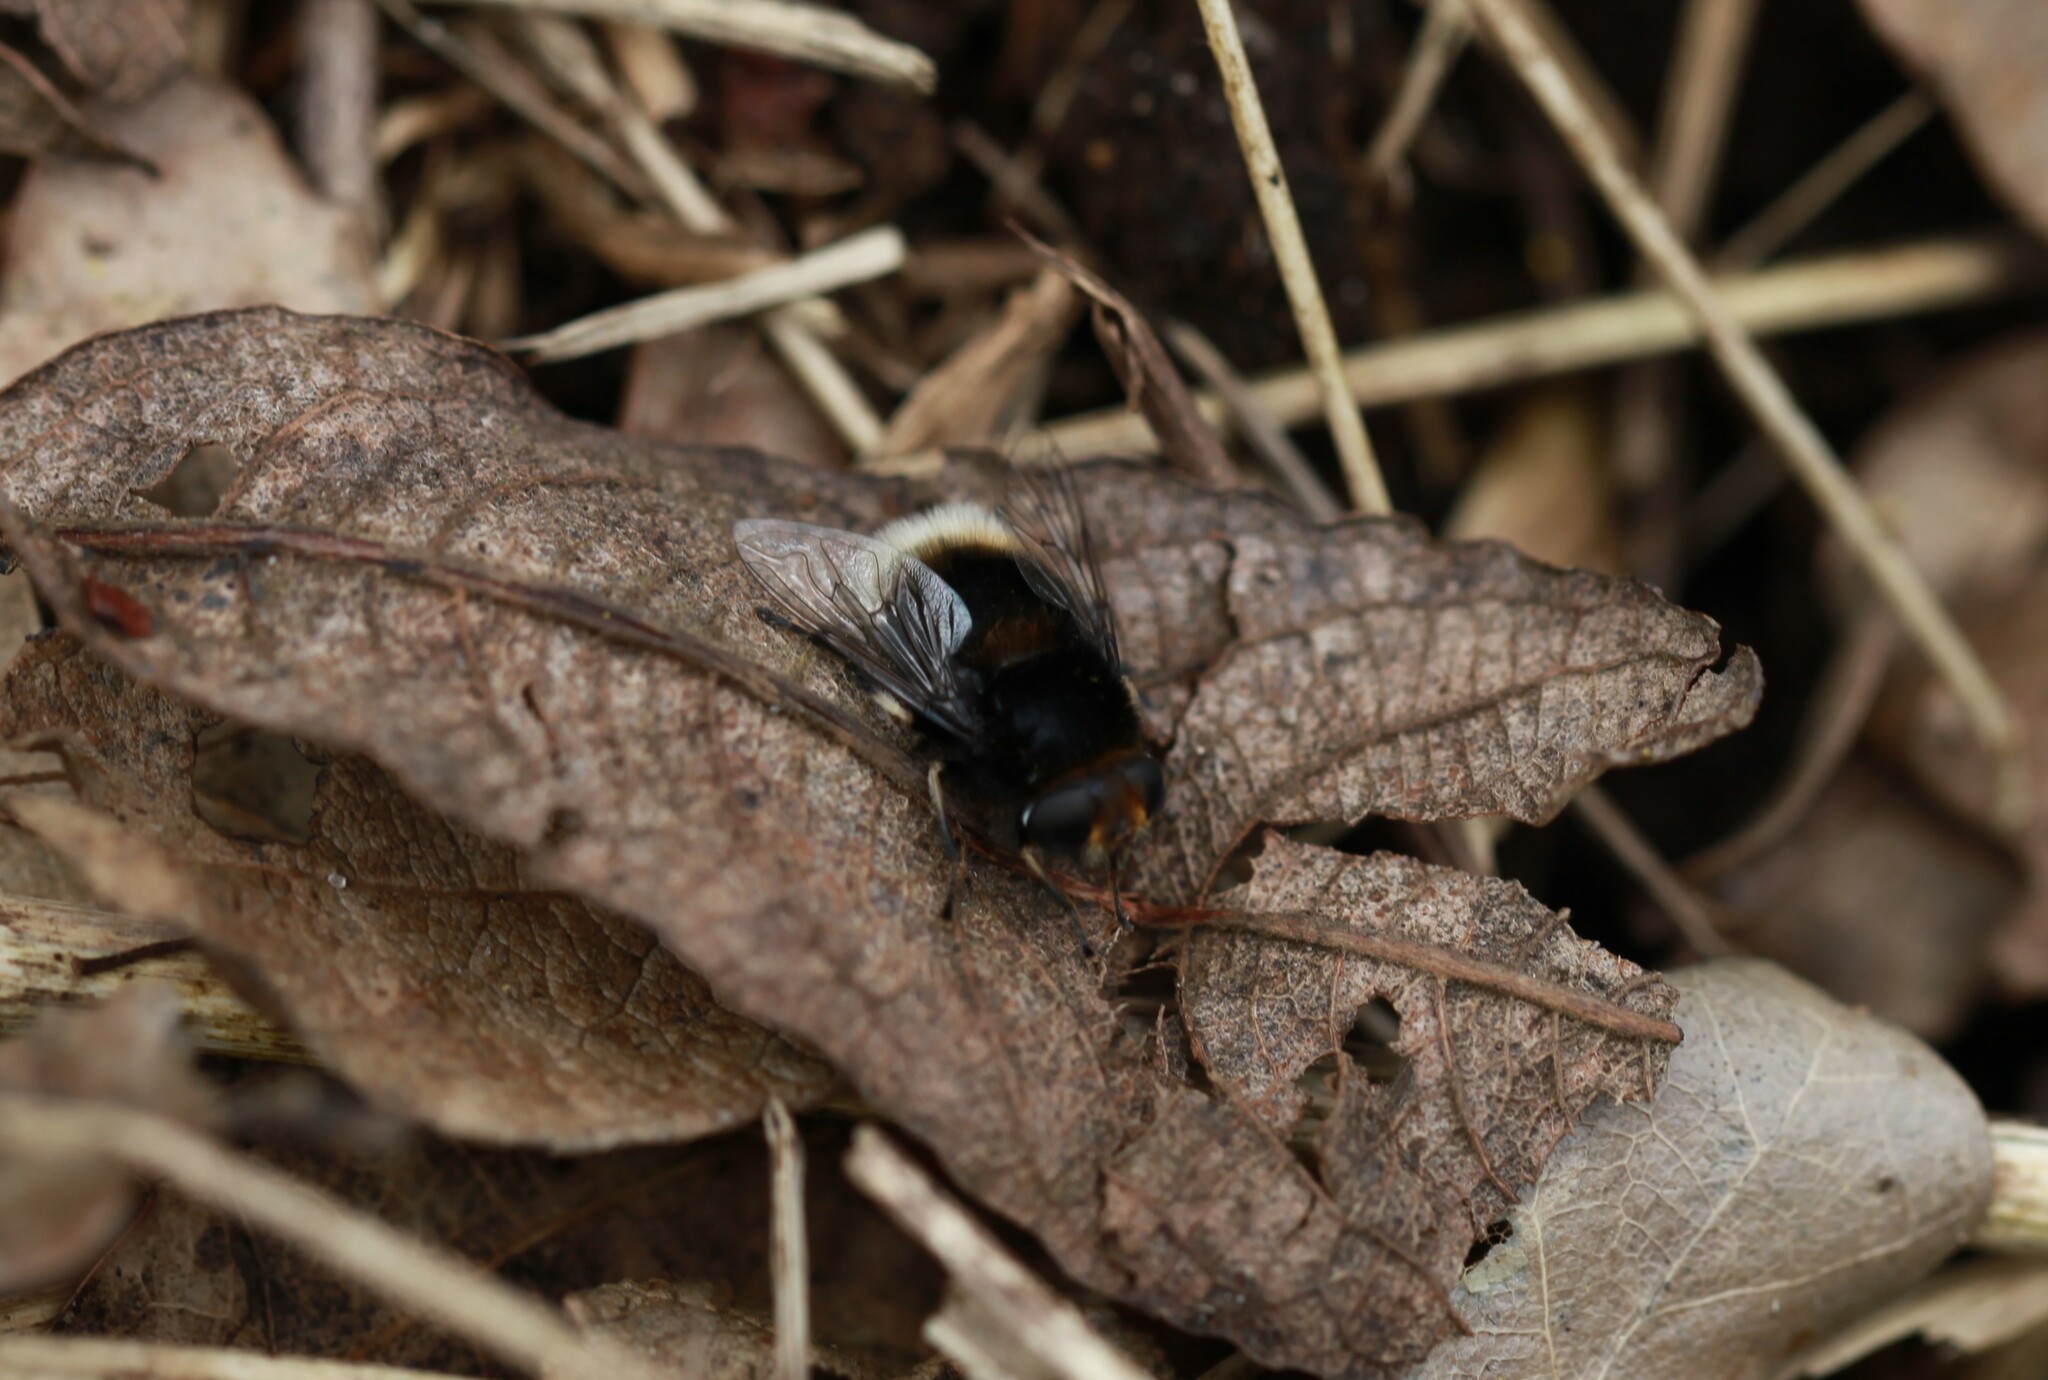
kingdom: Animalia
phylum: Arthropoda
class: Insecta
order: Diptera
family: Syrphidae
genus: Eristalis
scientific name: Eristalis intricaria
